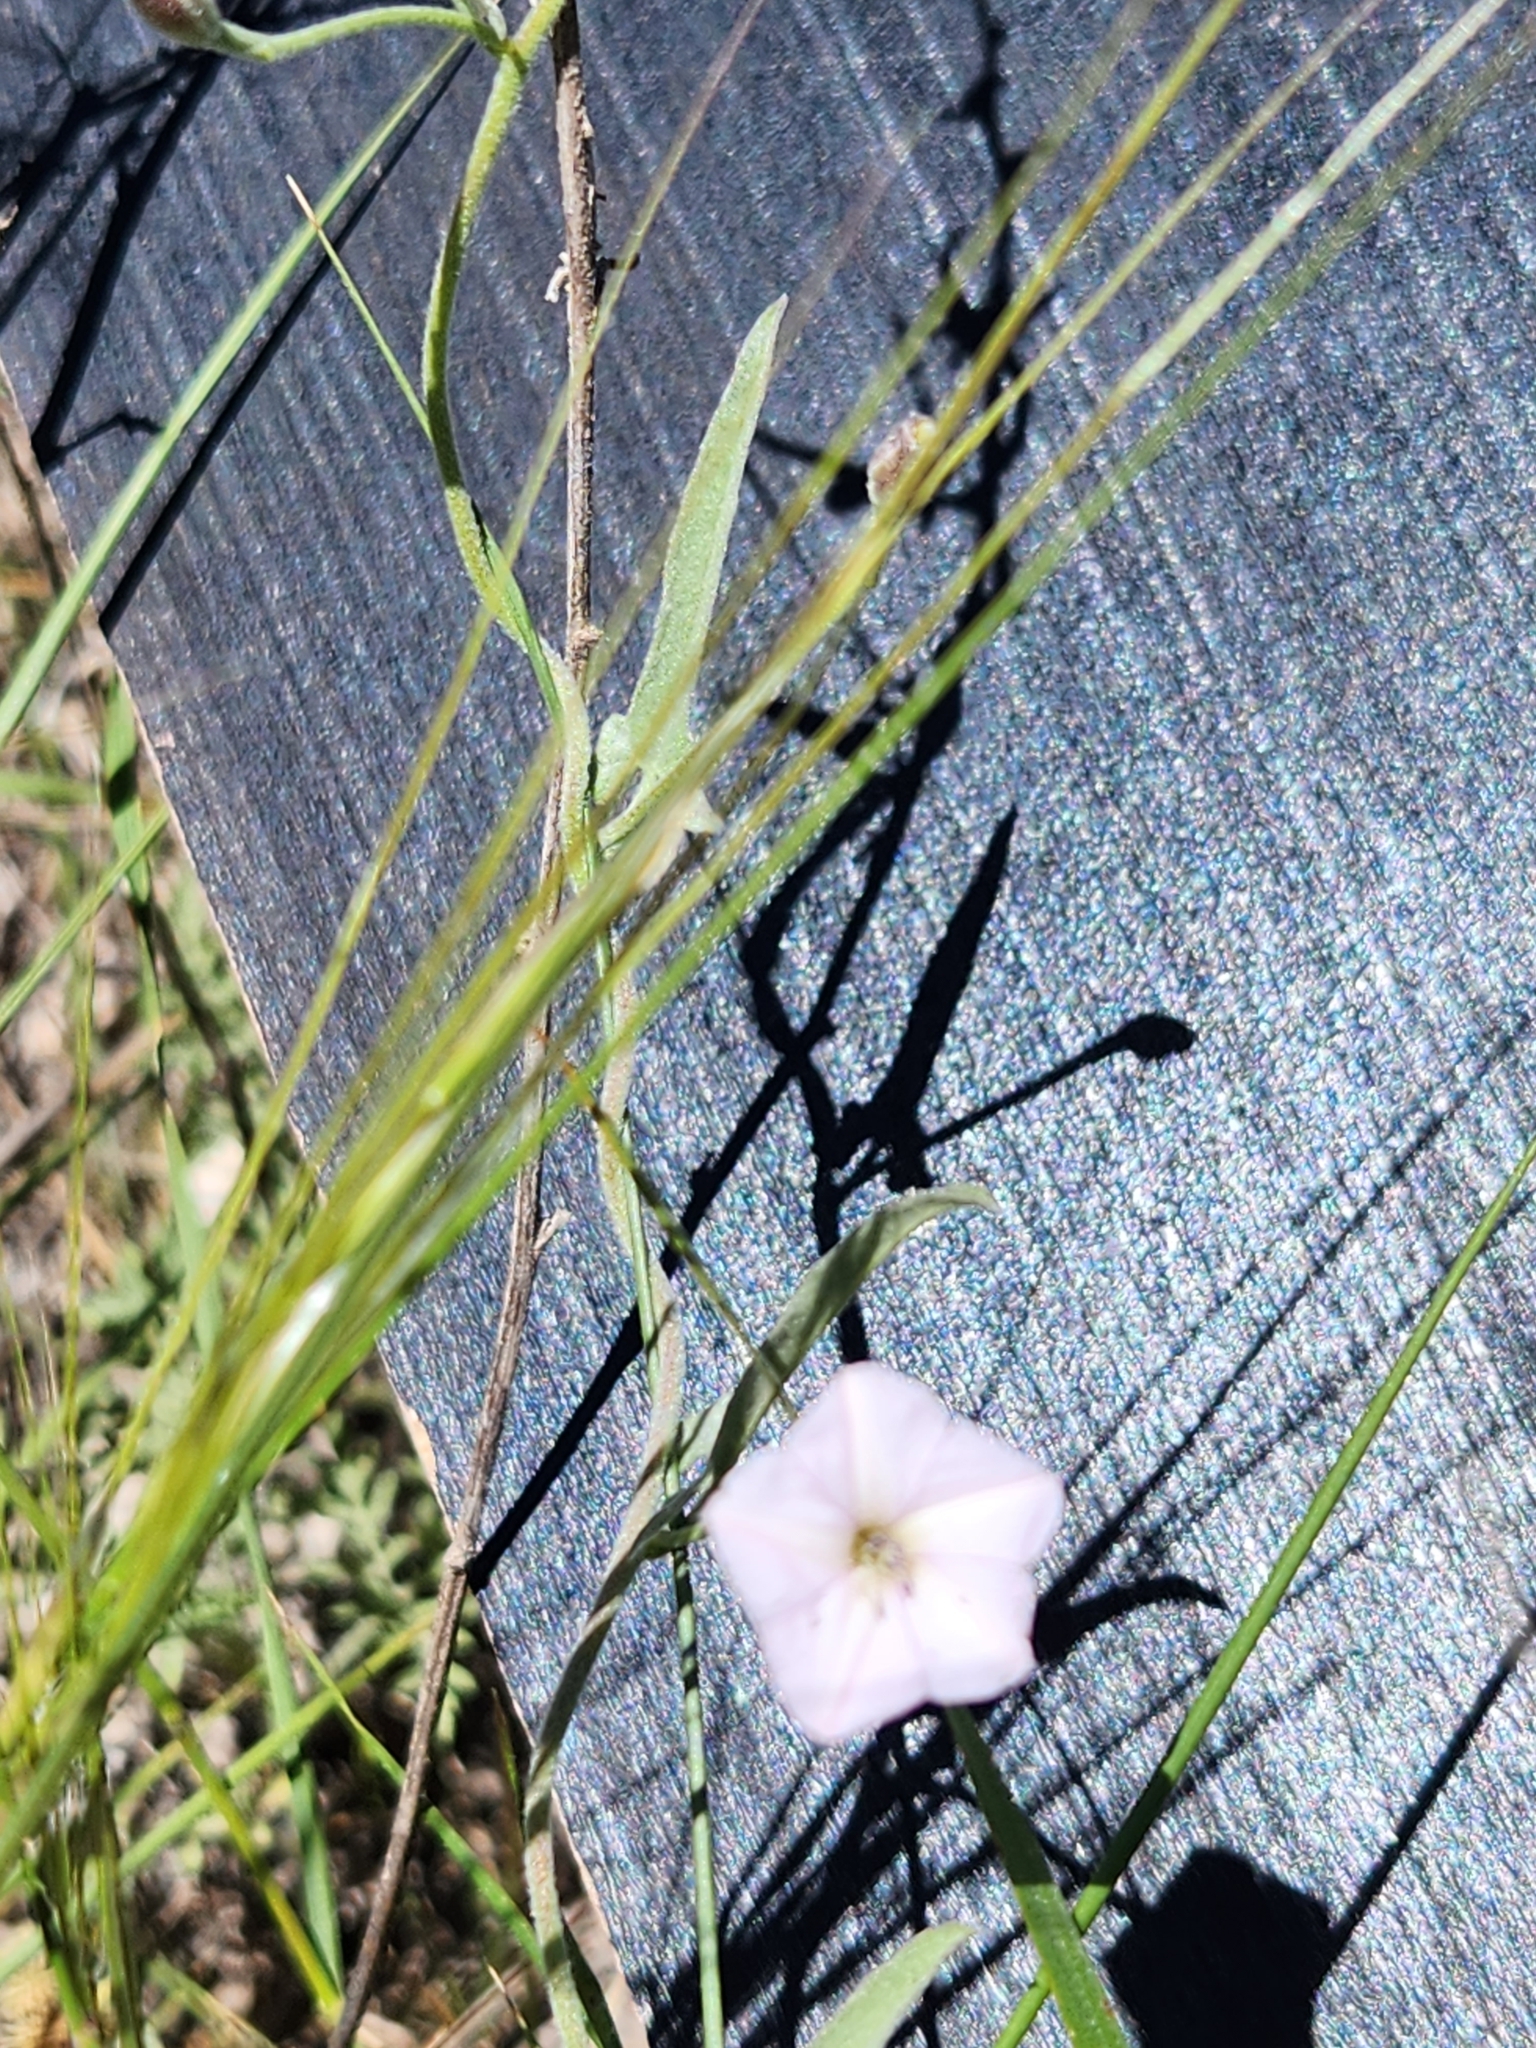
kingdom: Plantae
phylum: Tracheophyta
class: Magnoliopsida
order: Solanales
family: Convolvulaceae
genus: Convolvulus
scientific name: Convolvulus equitans
